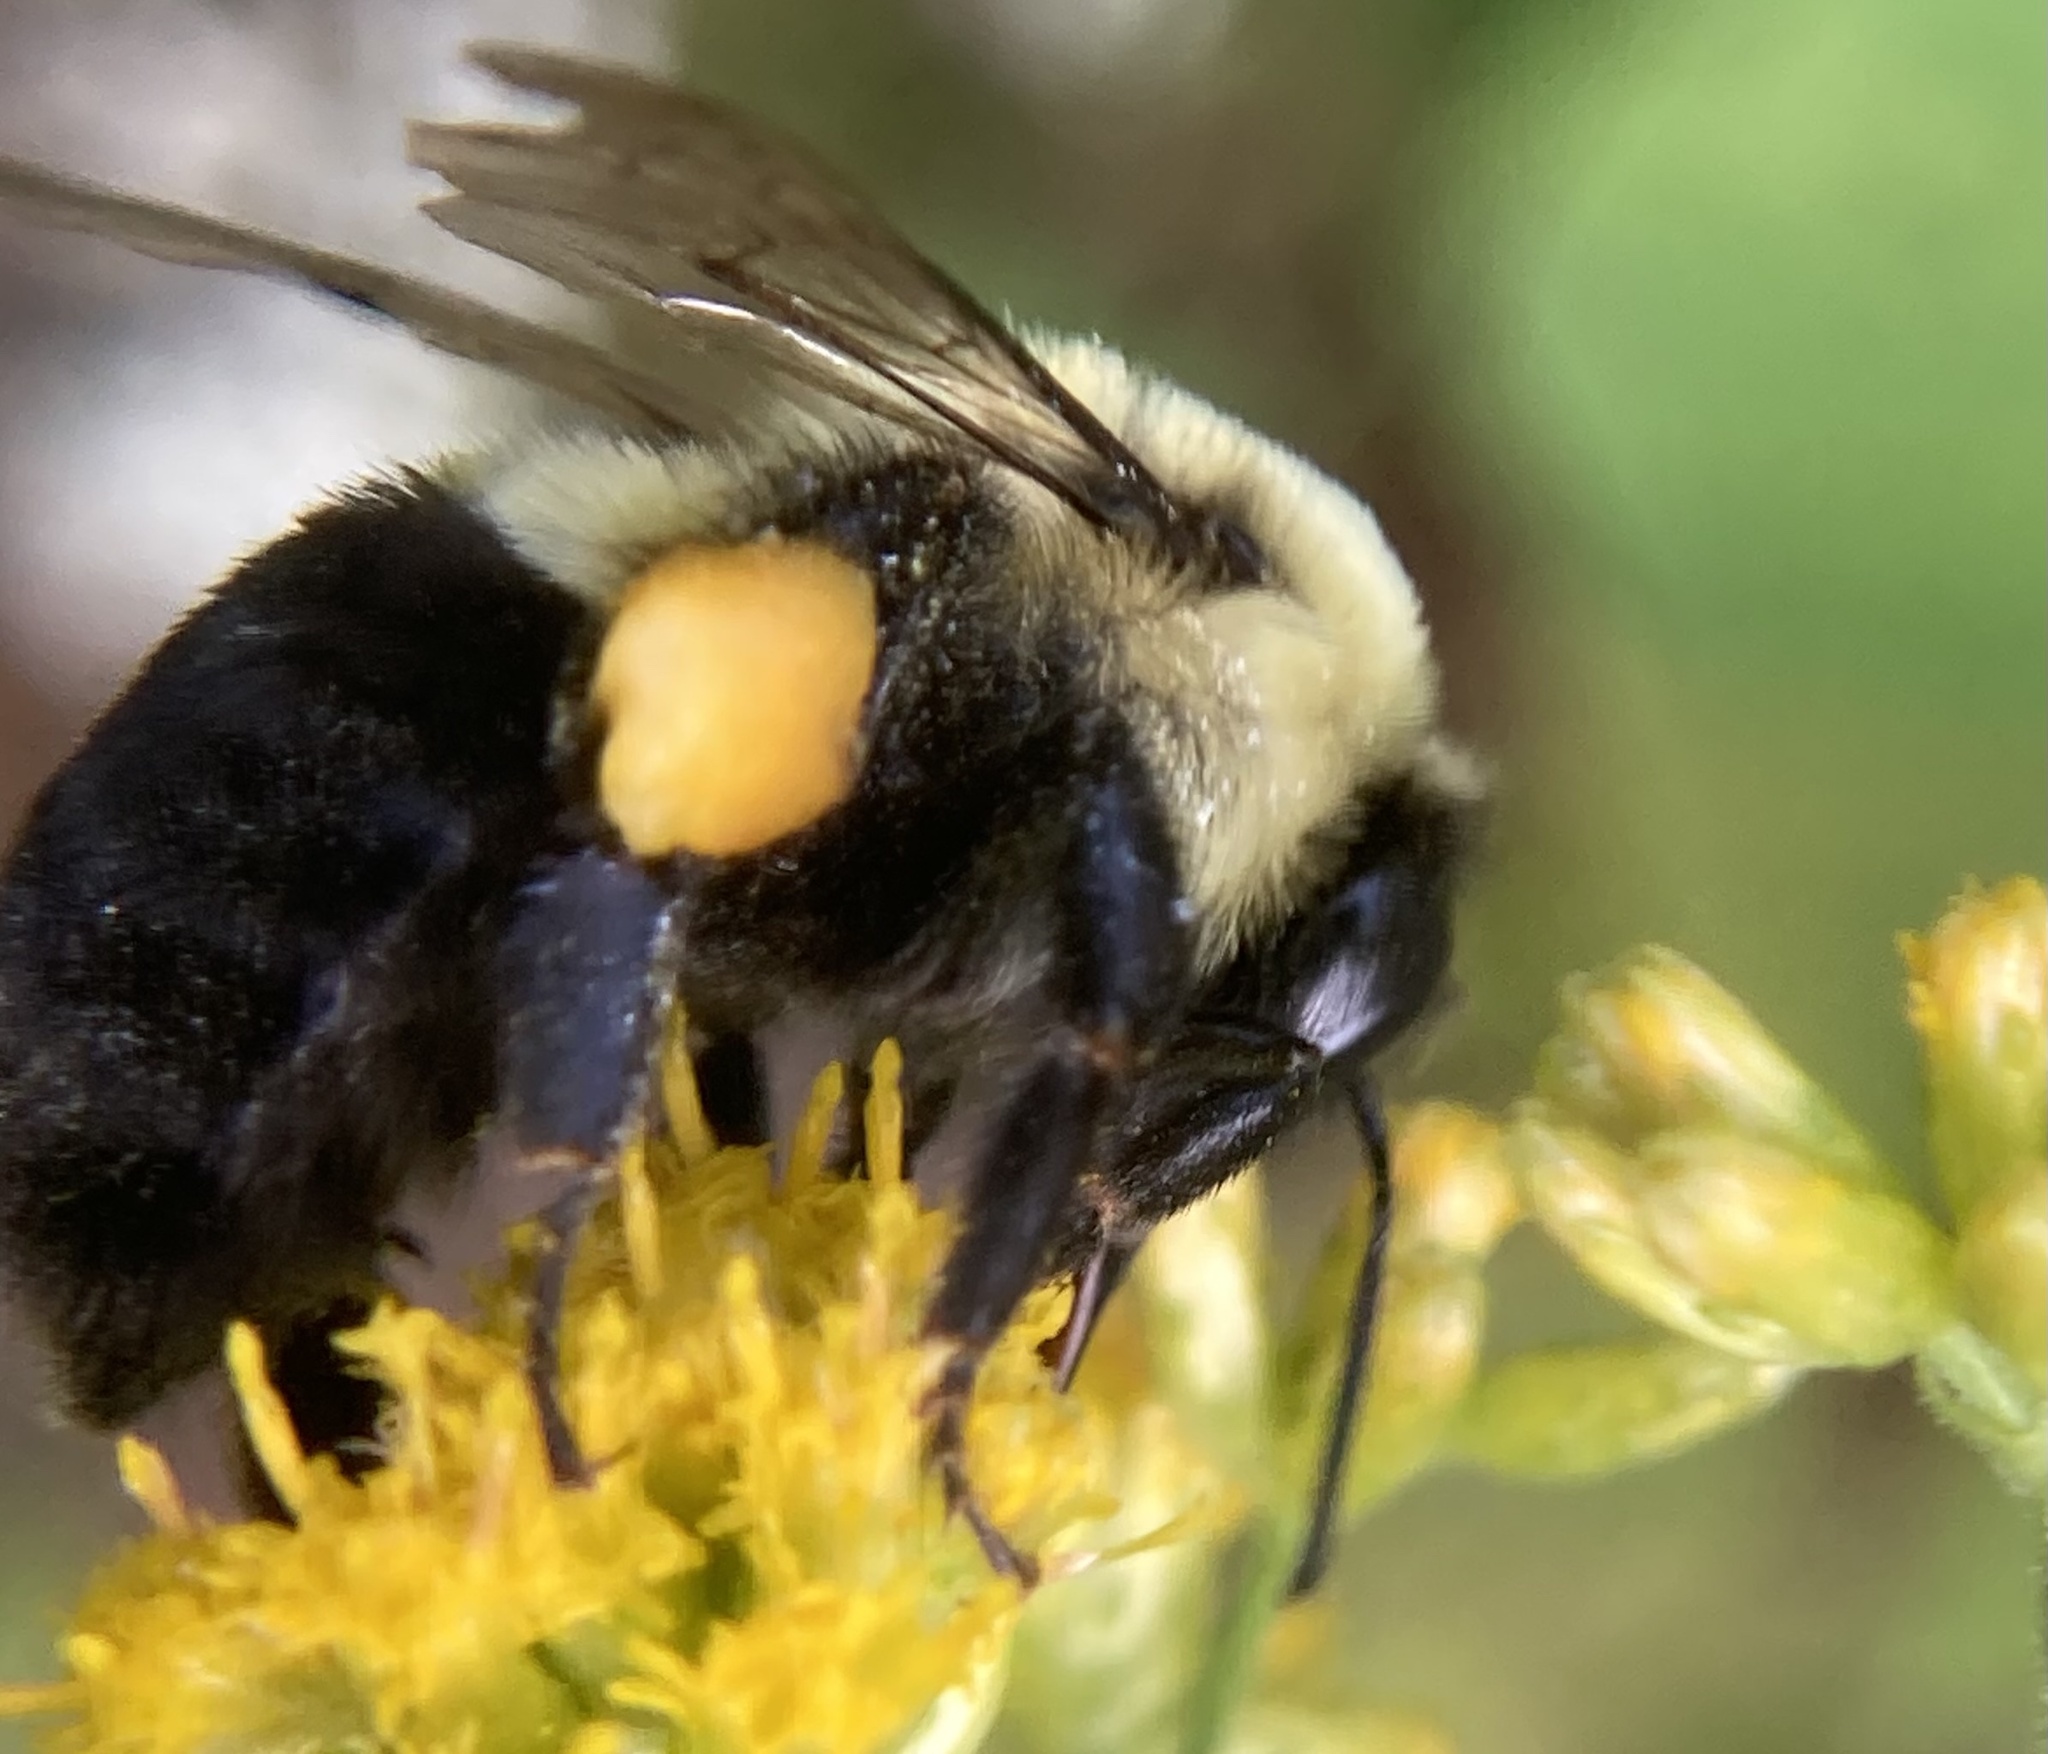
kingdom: Animalia
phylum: Arthropoda
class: Insecta
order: Hymenoptera
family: Apidae
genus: Bombus
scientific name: Bombus impatiens
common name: Common eastern bumble bee
